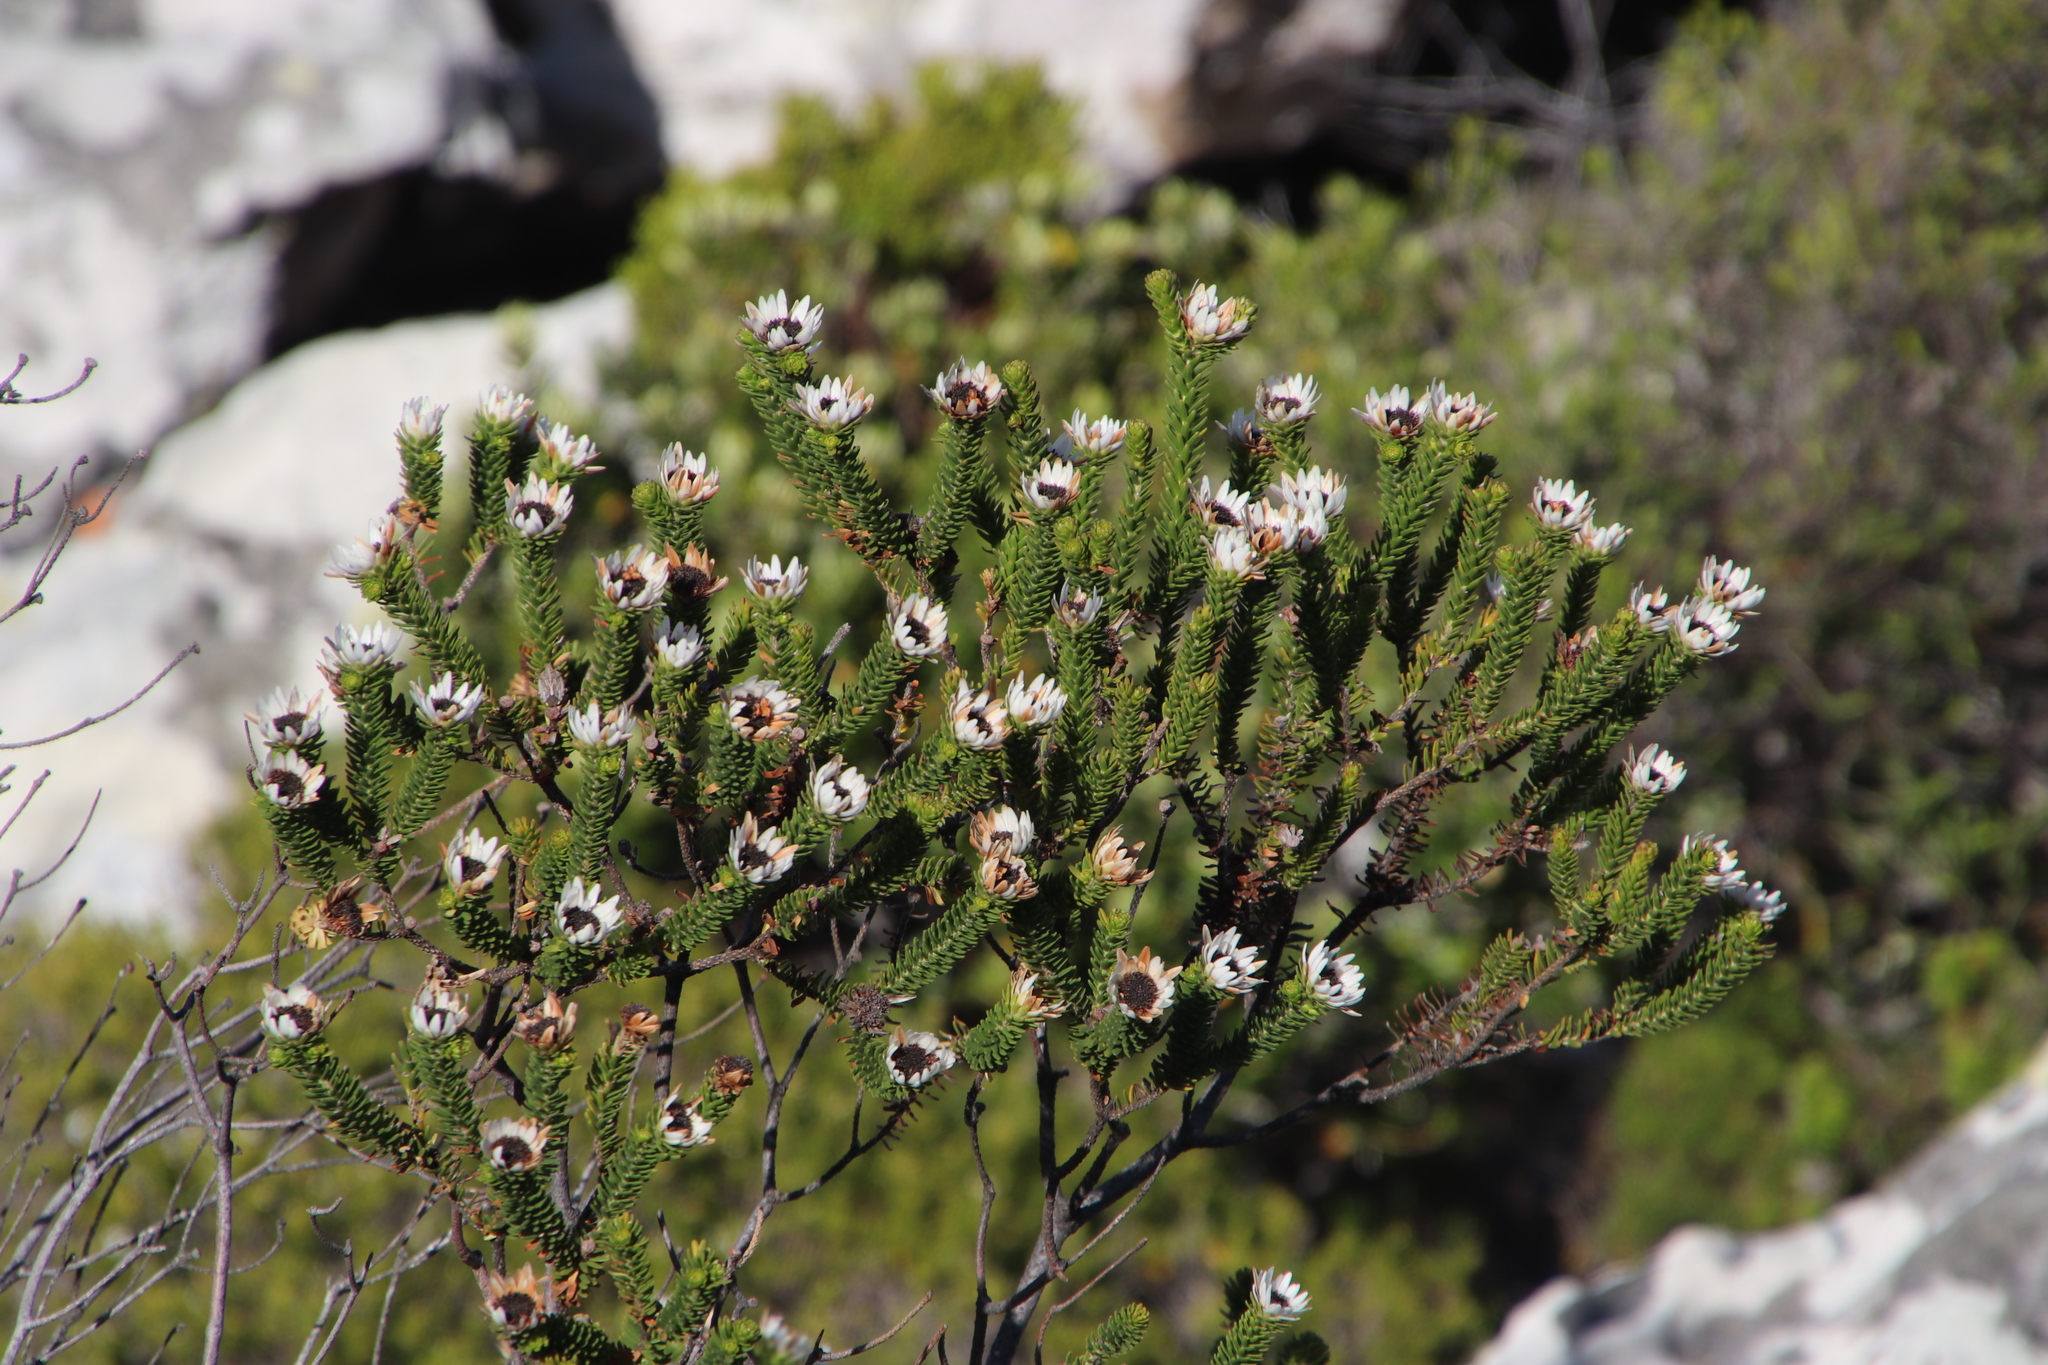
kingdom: Plantae
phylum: Tracheophyta
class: Magnoliopsida
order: Bruniales
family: Bruniaceae
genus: Staavia
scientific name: Staavia dodii
